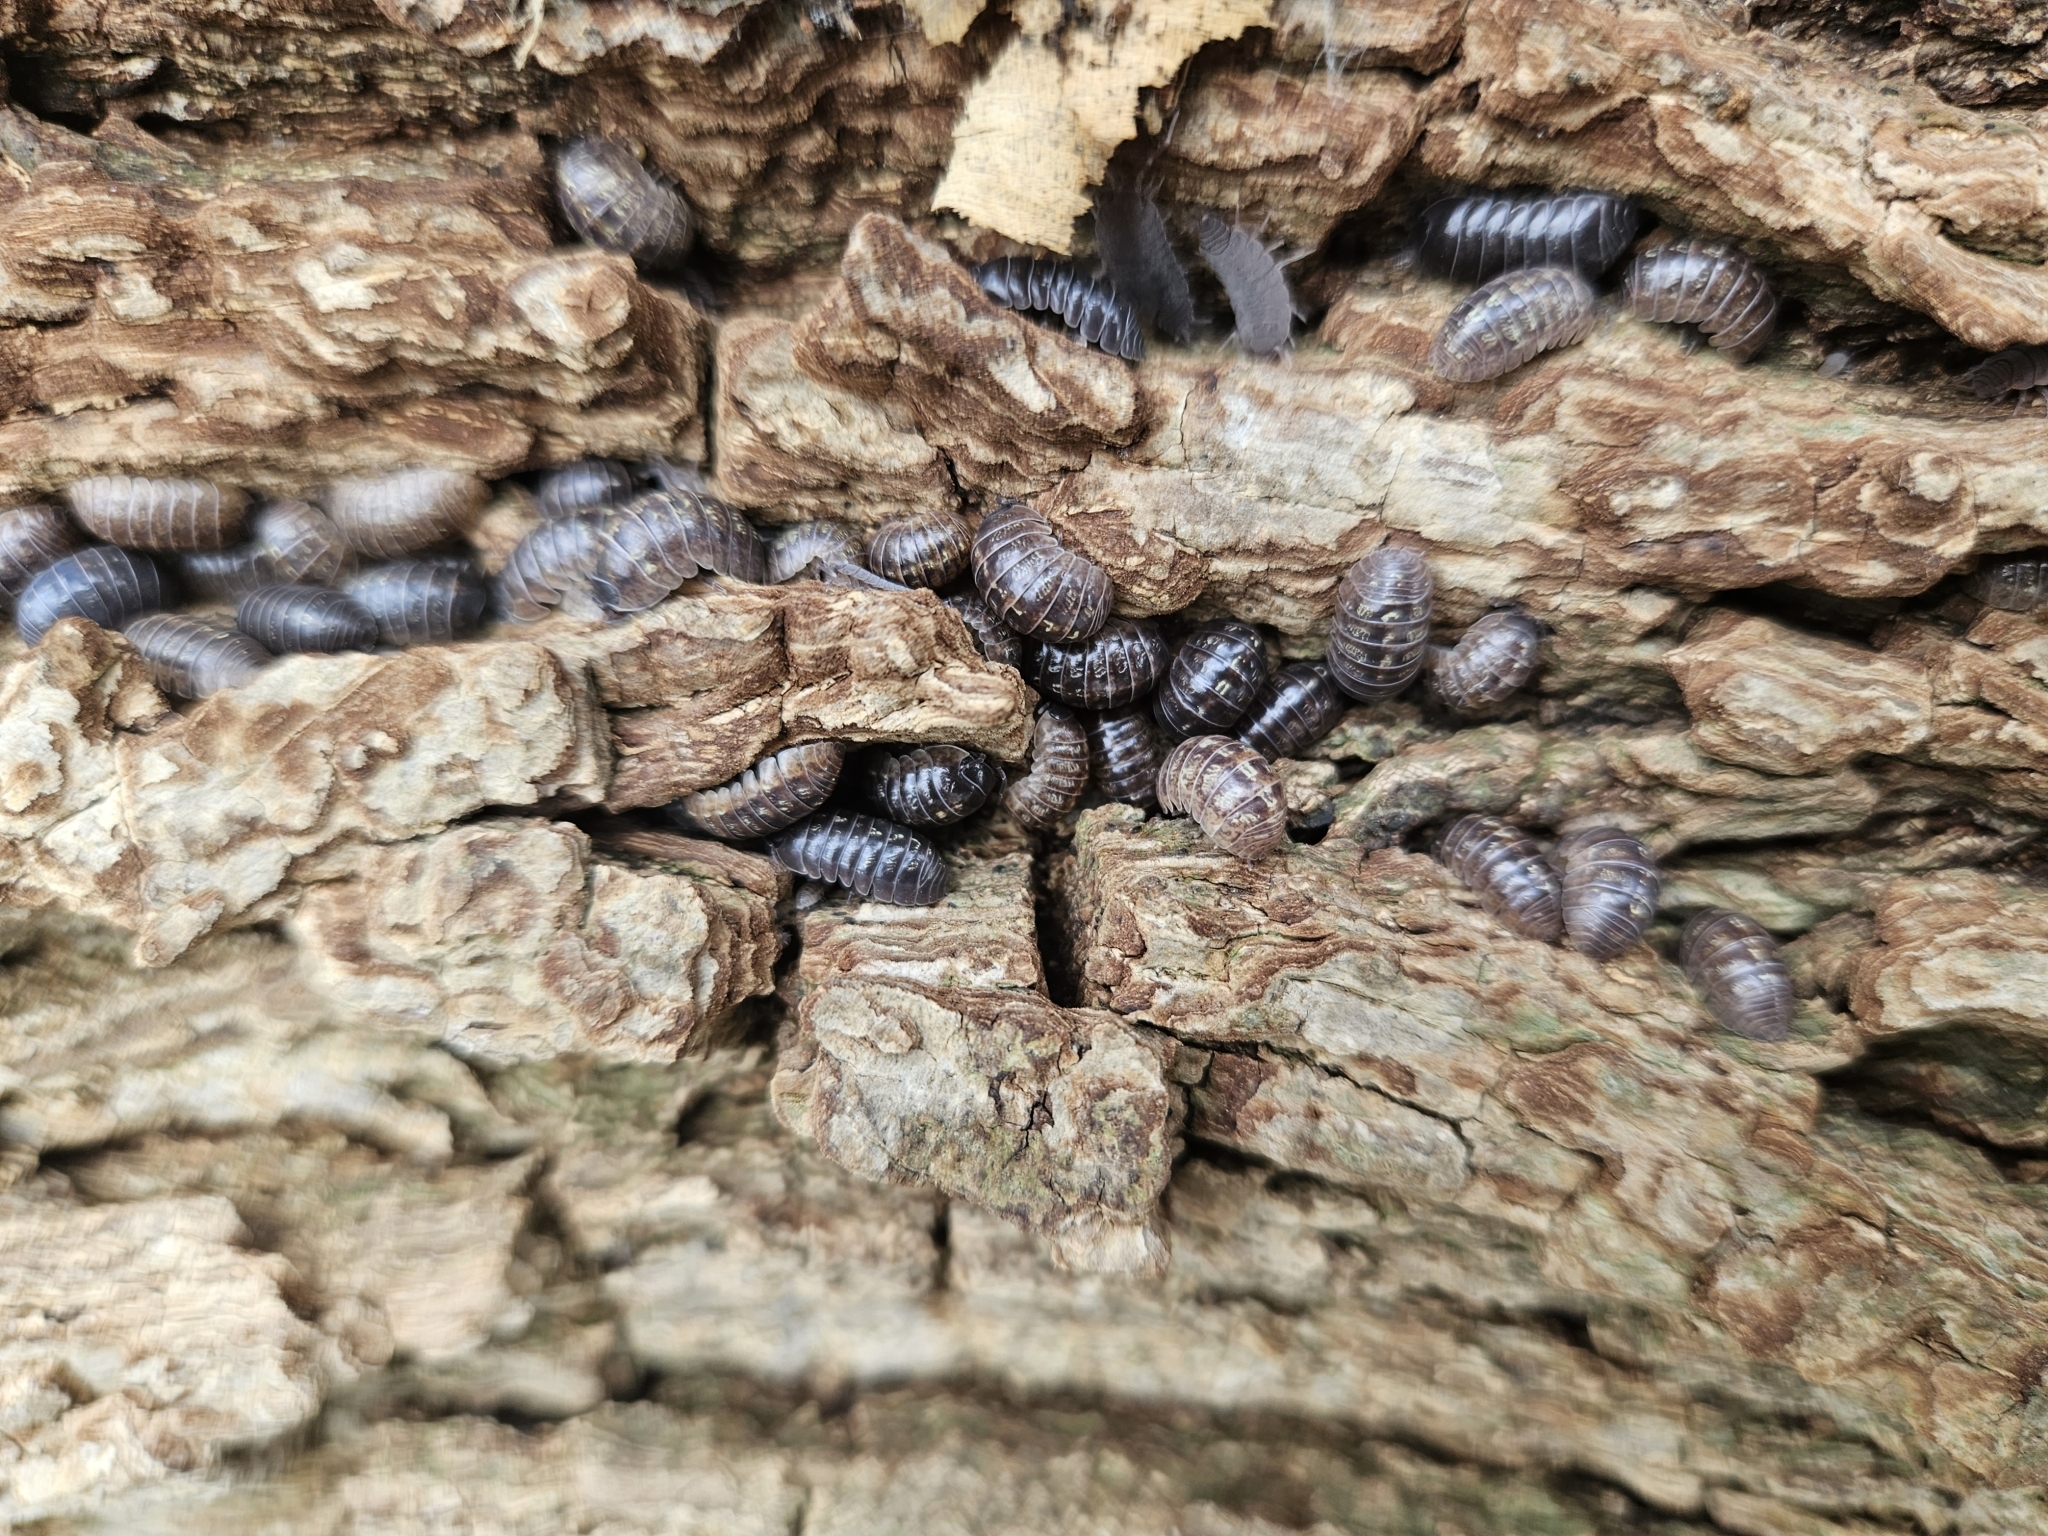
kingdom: Animalia
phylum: Arthropoda
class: Malacostraca
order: Isopoda
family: Armadillidiidae
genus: Armadillidium
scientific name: Armadillidium vulgare
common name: Common pill woodlouse
